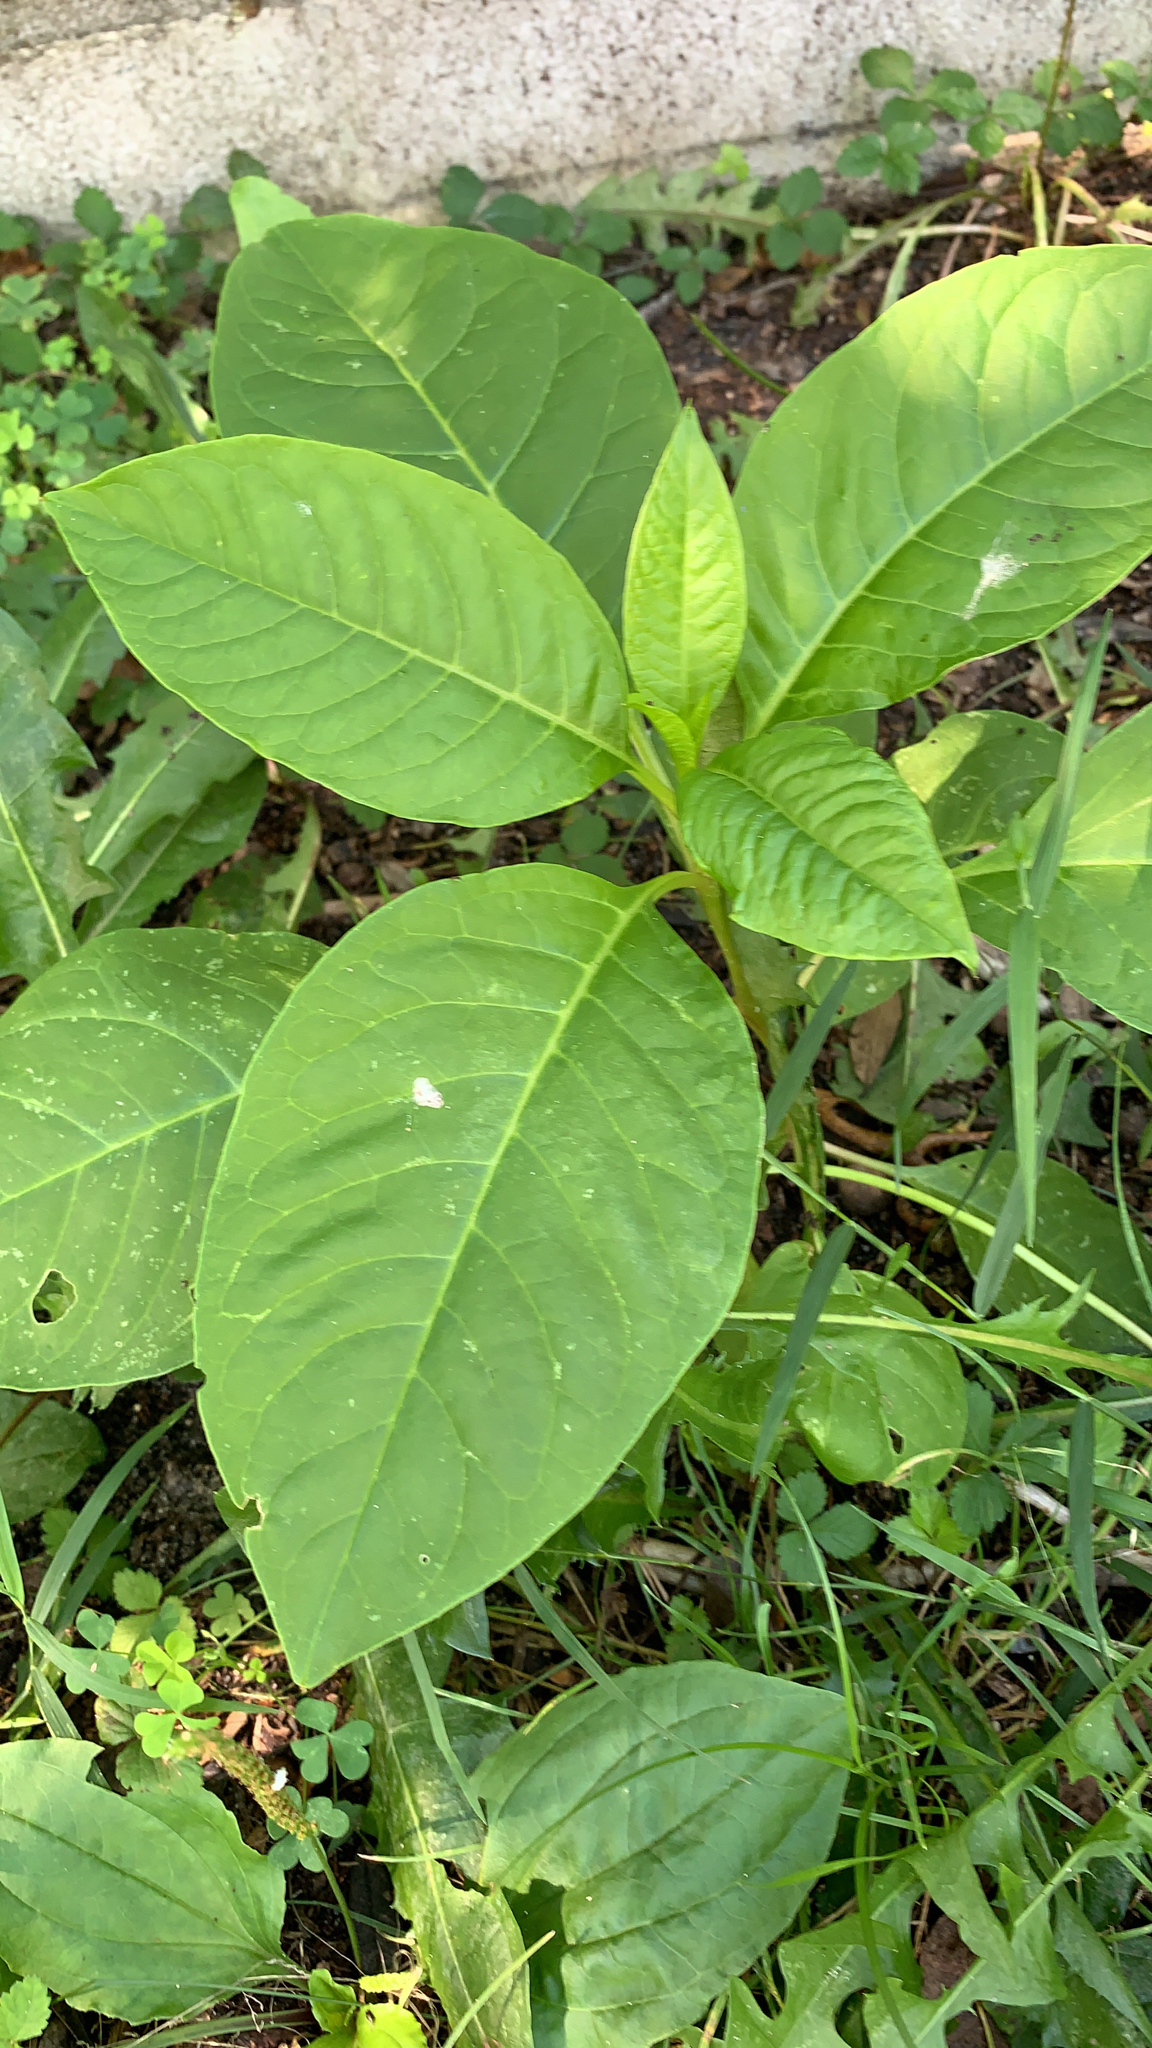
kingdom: Plantae
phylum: Tracheophyta
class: Magnoliopsida
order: Caryophyllales
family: Phytolaccaceae
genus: Phytolacca
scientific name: Phytolacca americana
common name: American pokeweed
